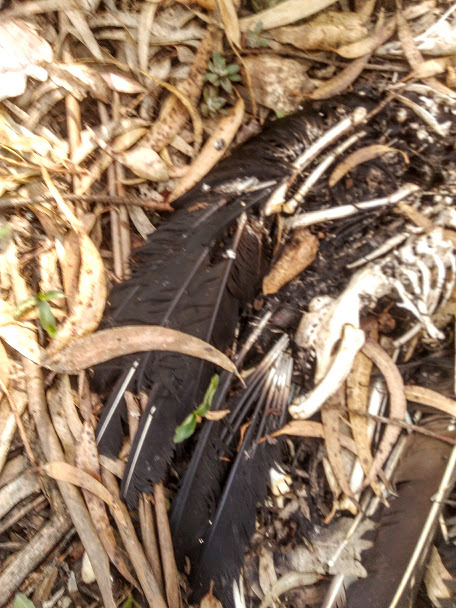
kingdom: Animalia
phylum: Chordata
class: Aves
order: Accipitriformes
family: Cathartidae
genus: Coragyps
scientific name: Coragyps atratus
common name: Black vulture
